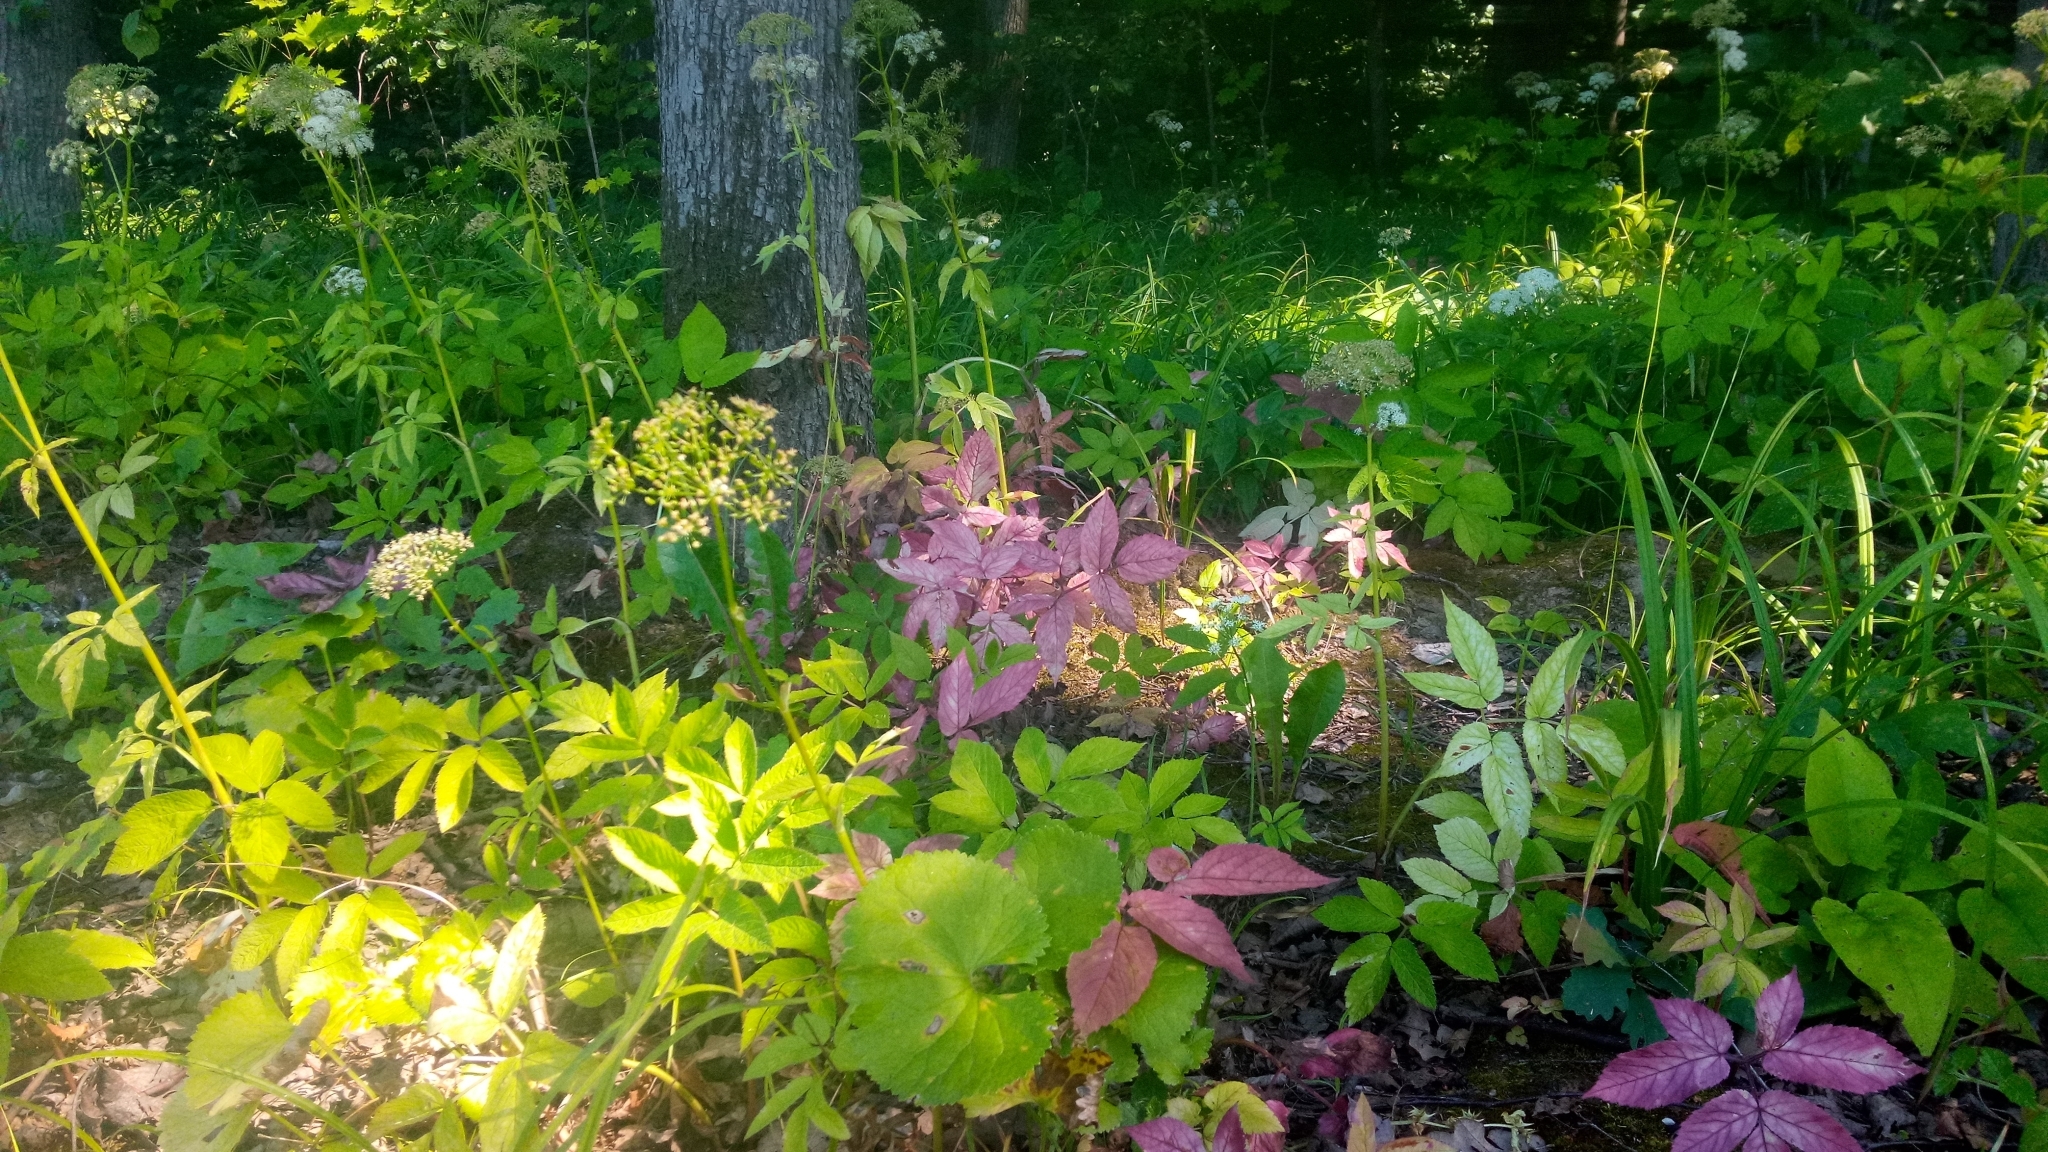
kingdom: Plantae
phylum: Tracheophyta
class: Magnoliopsida
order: Apiales
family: Apiaceae
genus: Aegopodium
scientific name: Aegopodium podagraria
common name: Ground-elder
